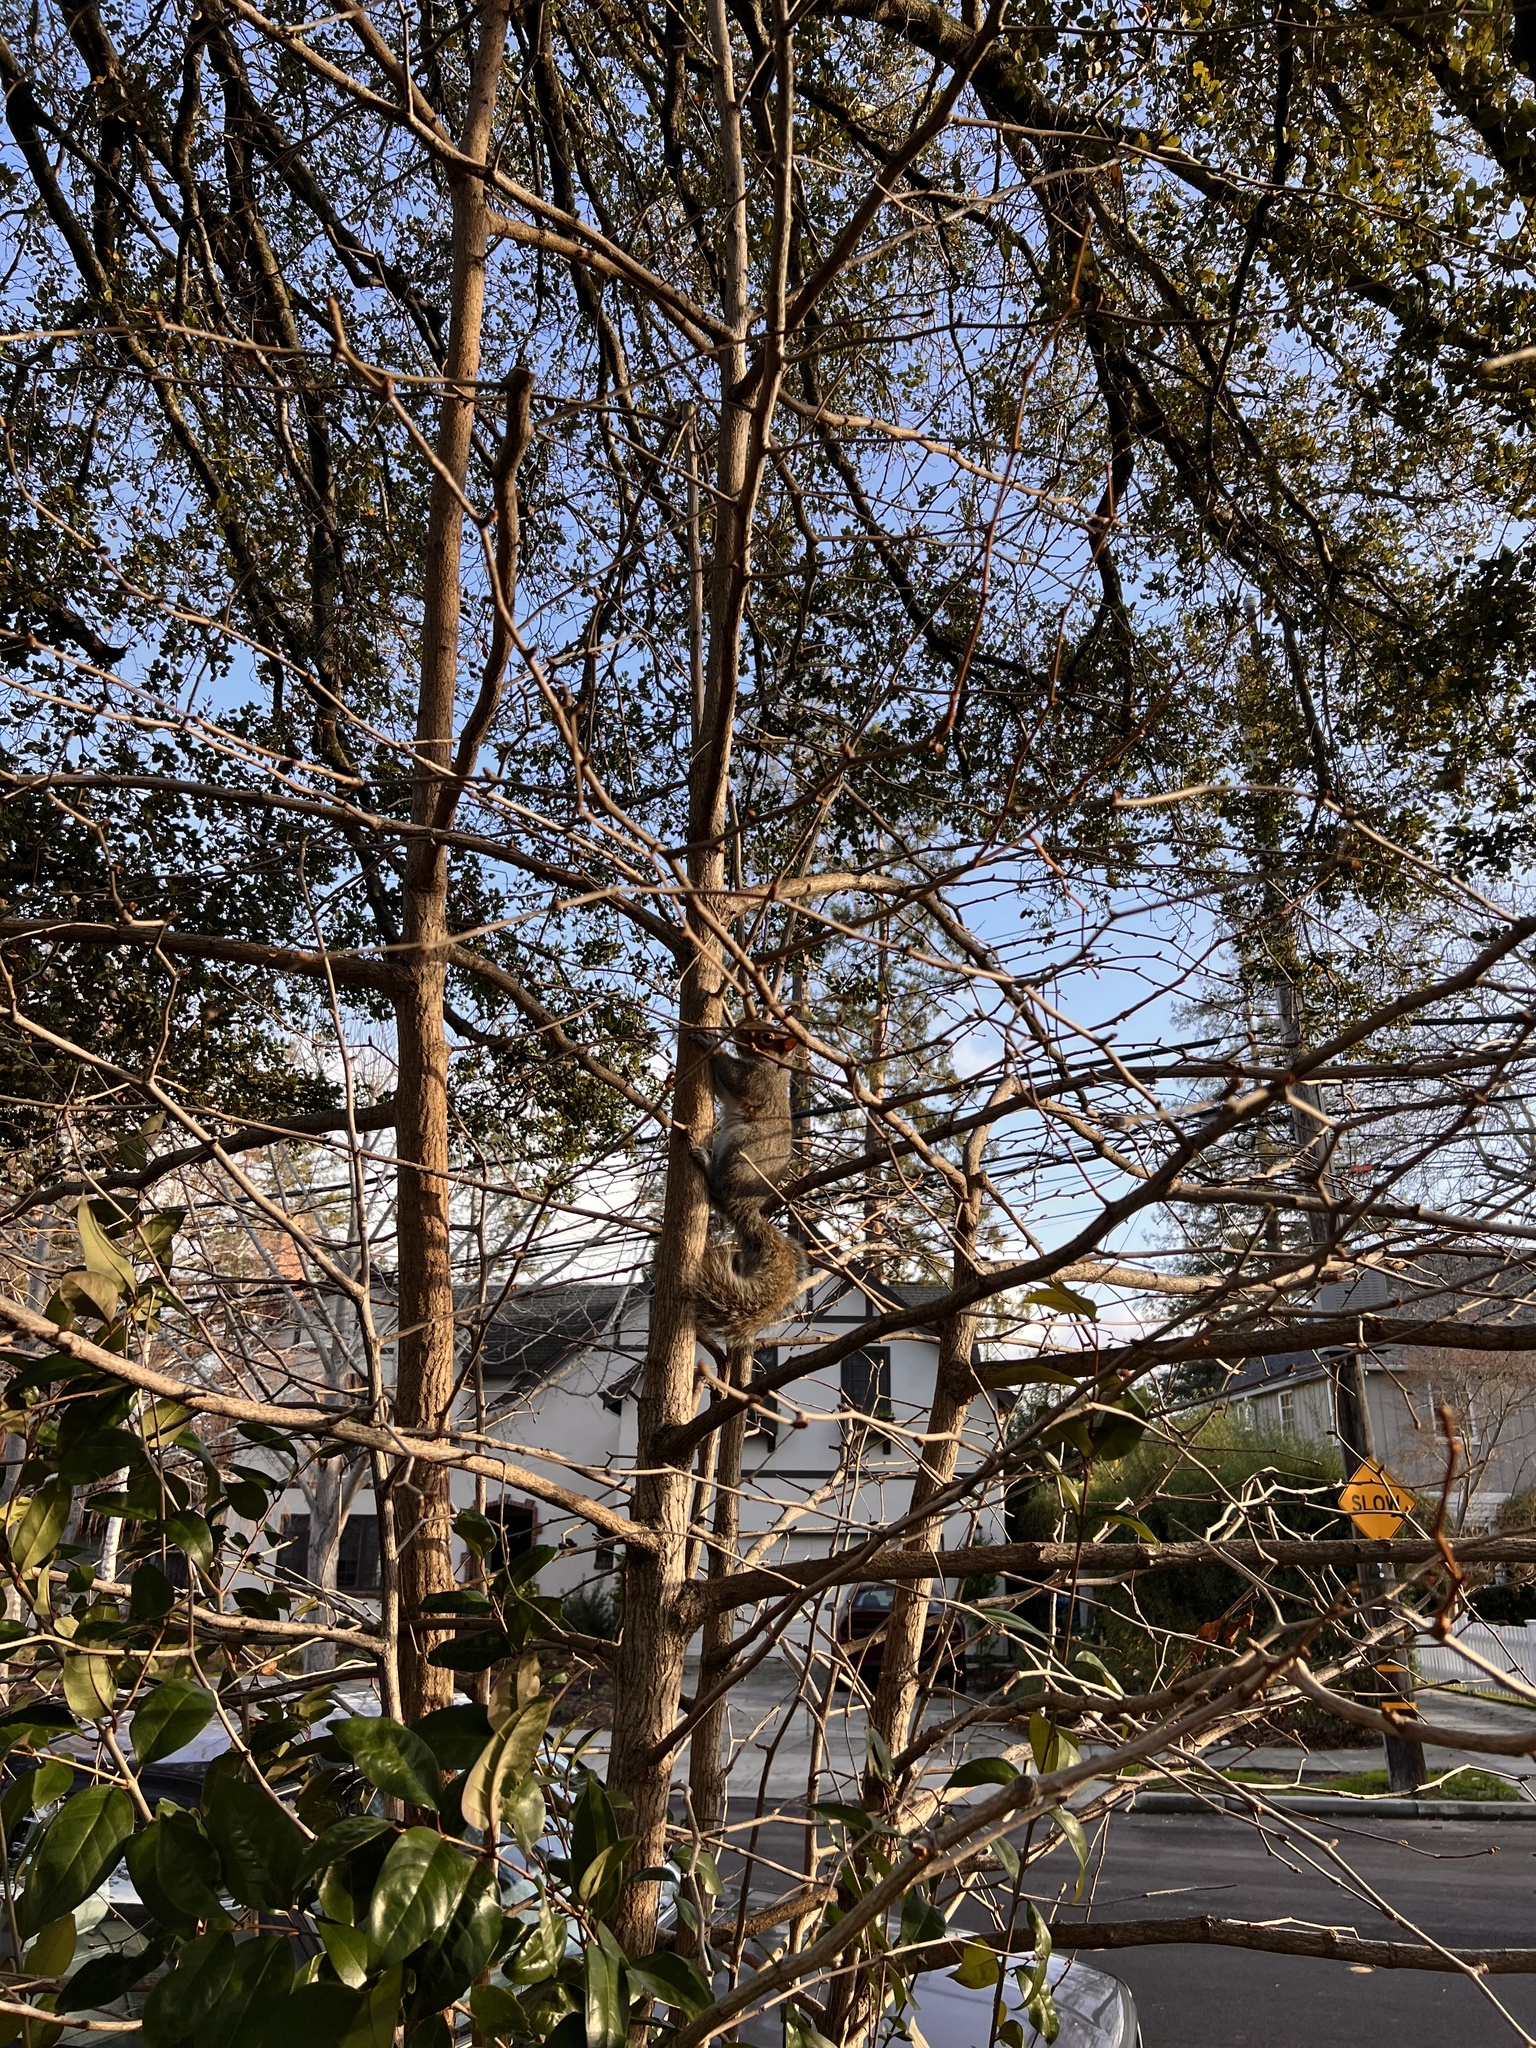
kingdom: Animalia
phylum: Chordata
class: Mammalia
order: Rodentia
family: Sciuridae
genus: Sciurus
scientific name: Sciurus carolinensis
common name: Eastern gray squirrel
